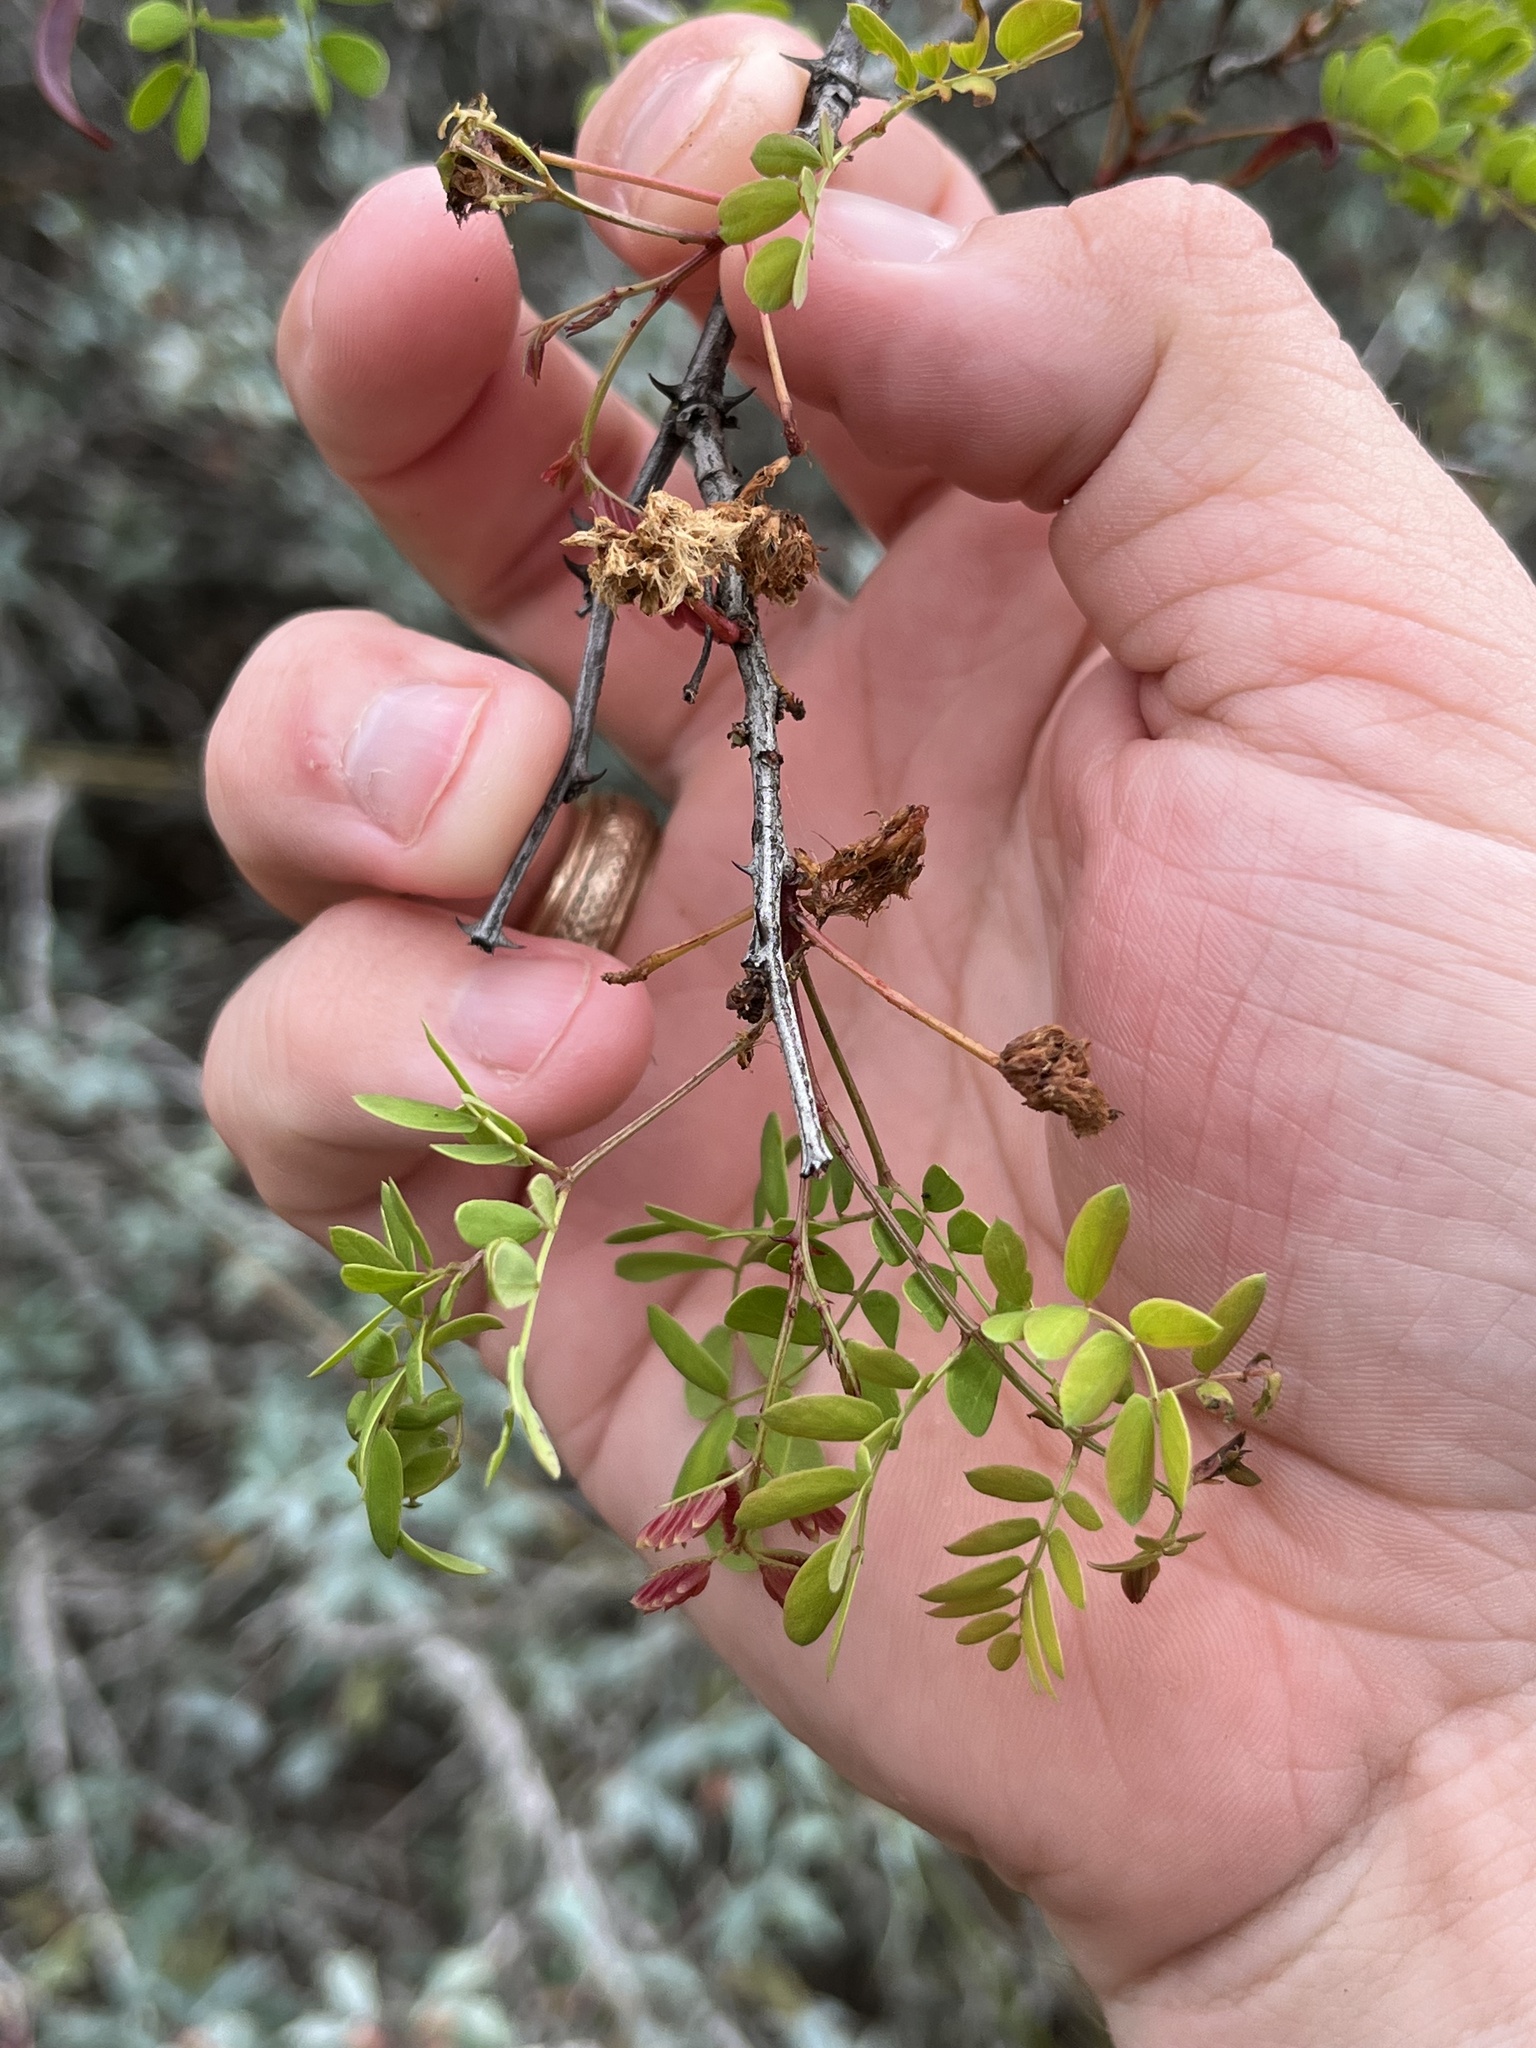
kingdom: Plantae
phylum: Tracheophyta
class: Magnoliopsida
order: Fabales
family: Fabaceae
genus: Senegalia
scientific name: Senegalia roemeriana
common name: Roemer's acacia
